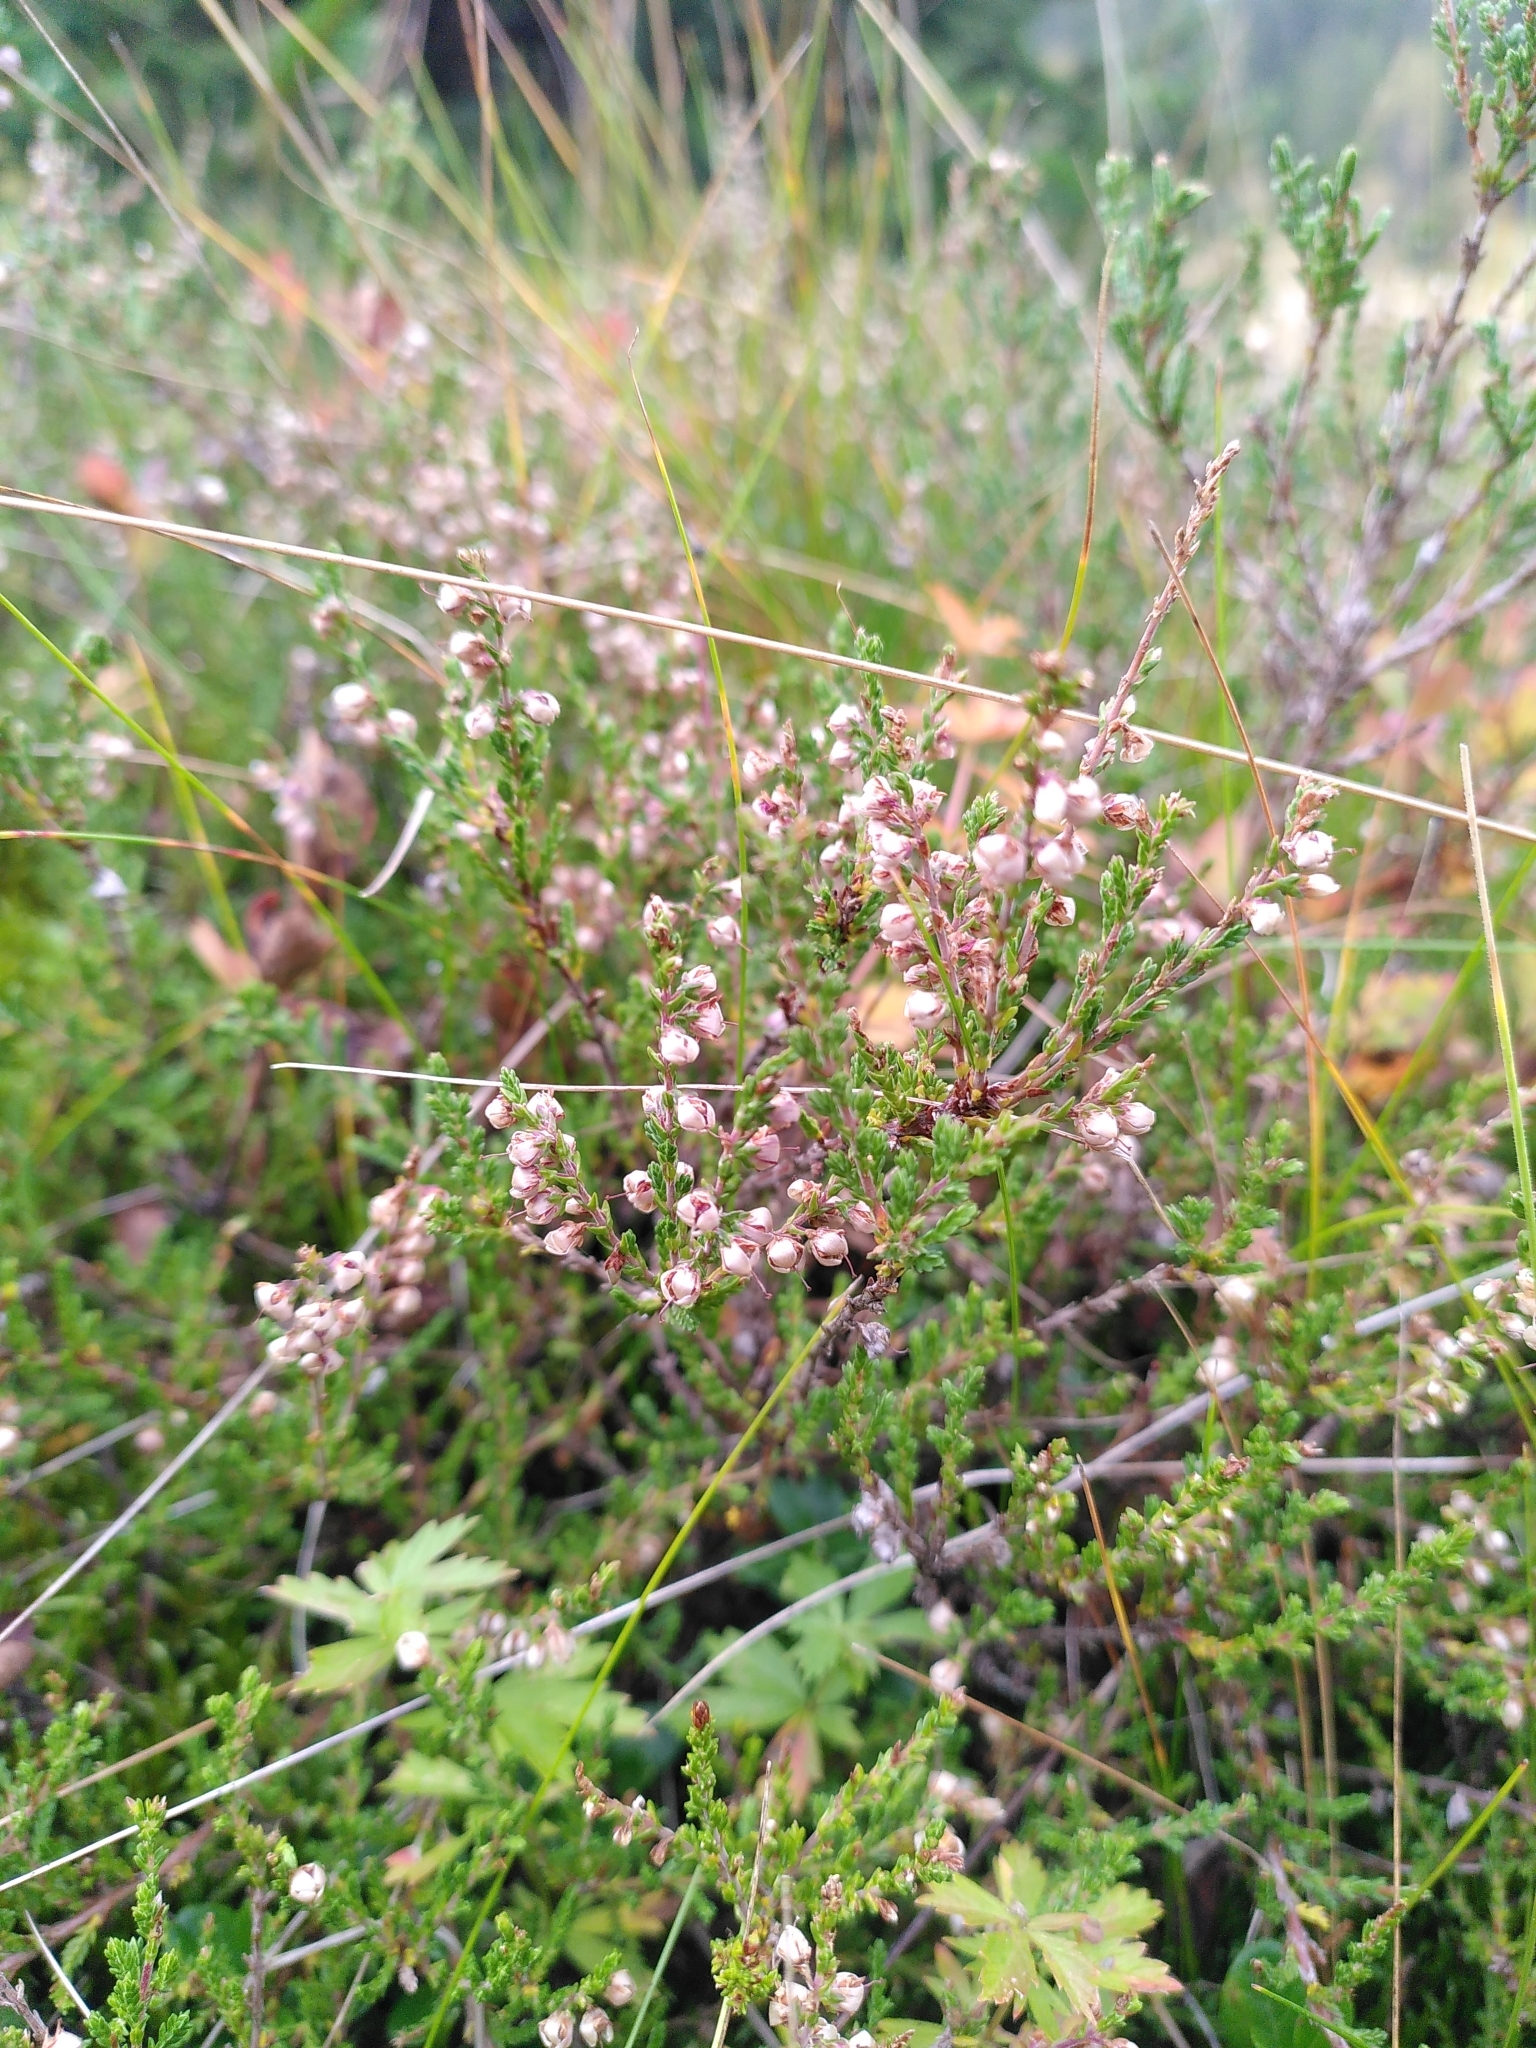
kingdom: Plantae
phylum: Tracheophyta
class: Magnoliopsida
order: Ericales
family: Ericaceae
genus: Calluna
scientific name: Calluna vulgaris
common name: Heather
